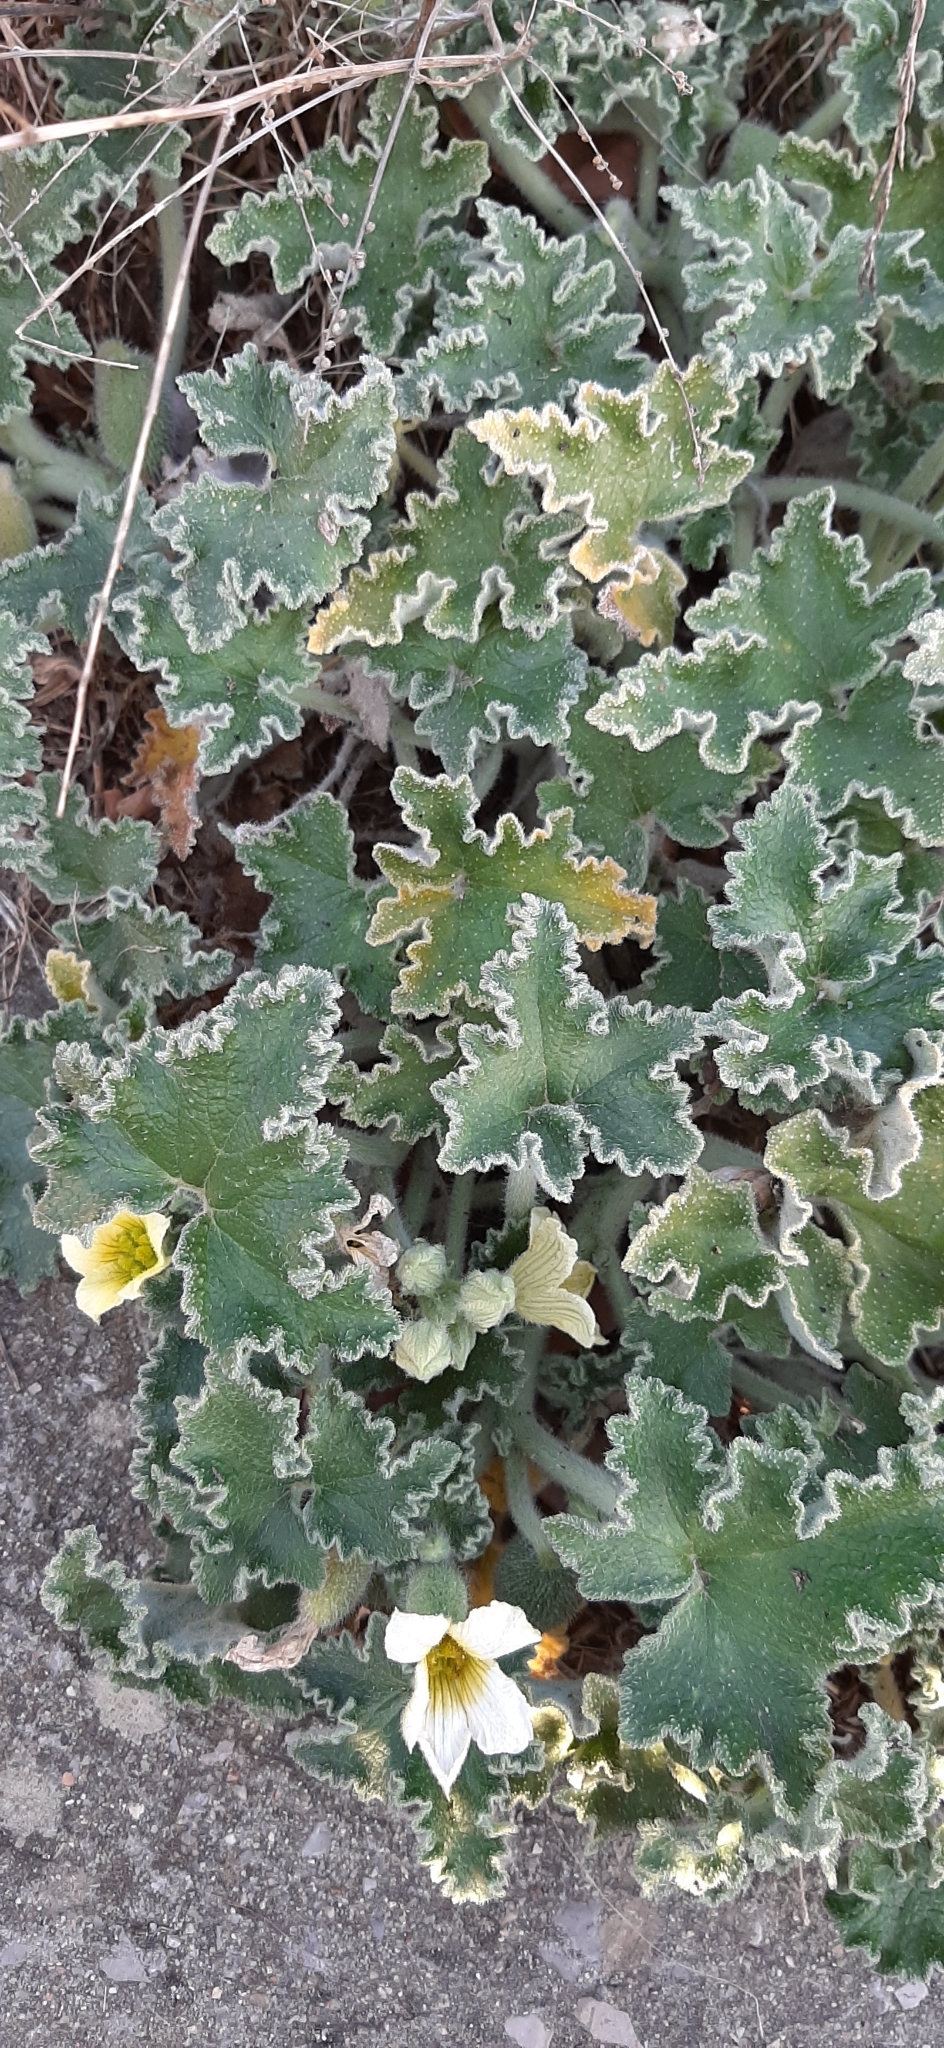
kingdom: Plantae
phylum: Tracheophyta
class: Magnoliopsida
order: Cucurbitales
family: Cucurbitaceae
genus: Ecballium
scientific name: Ecballium elaterium
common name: Squirting cucumber
